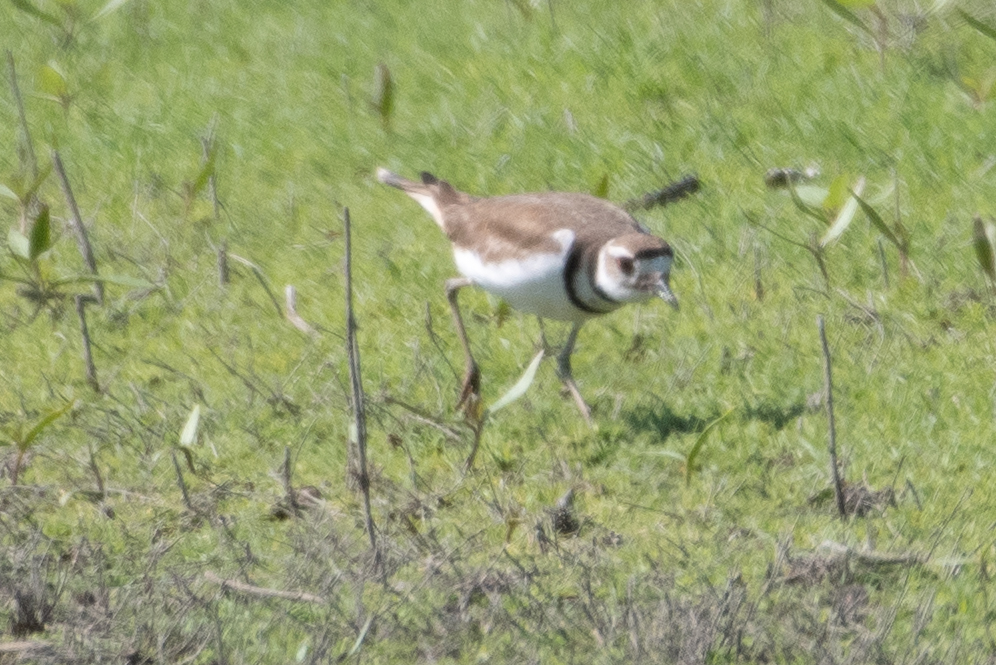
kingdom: Animalia
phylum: Chordata
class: Aves
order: Charadriiformes
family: Charadriidae
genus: Charadrius
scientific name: Charadrius vociferus
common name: Killdeer
